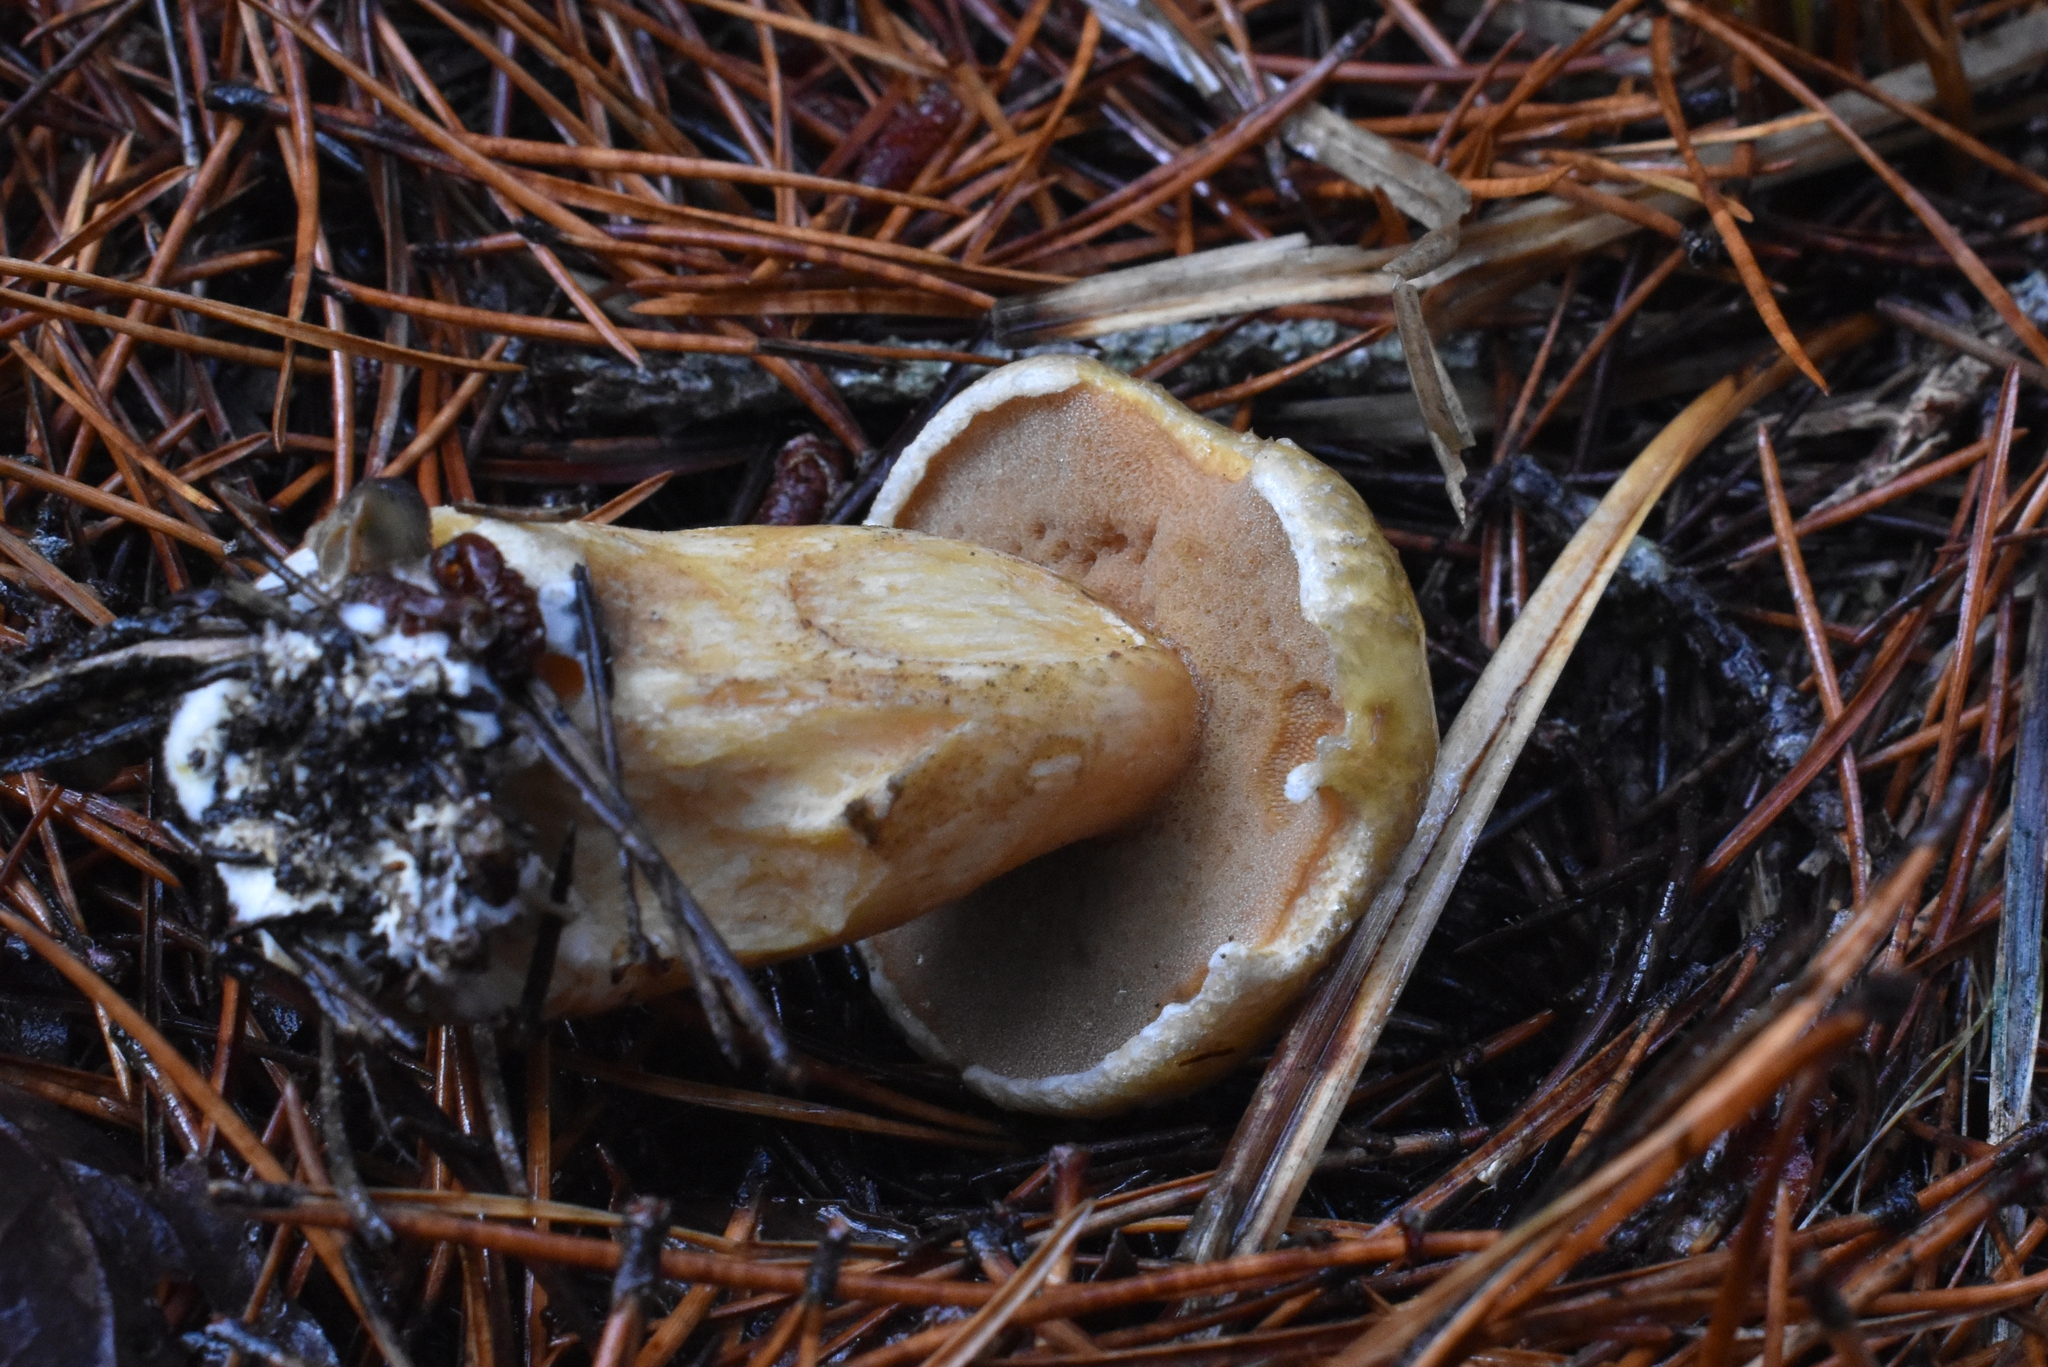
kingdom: Fungi
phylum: Basidiomycota
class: Agaricomycetes
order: Boletales
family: Suillaceae
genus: Suillus
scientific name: Suillus tomentosus
